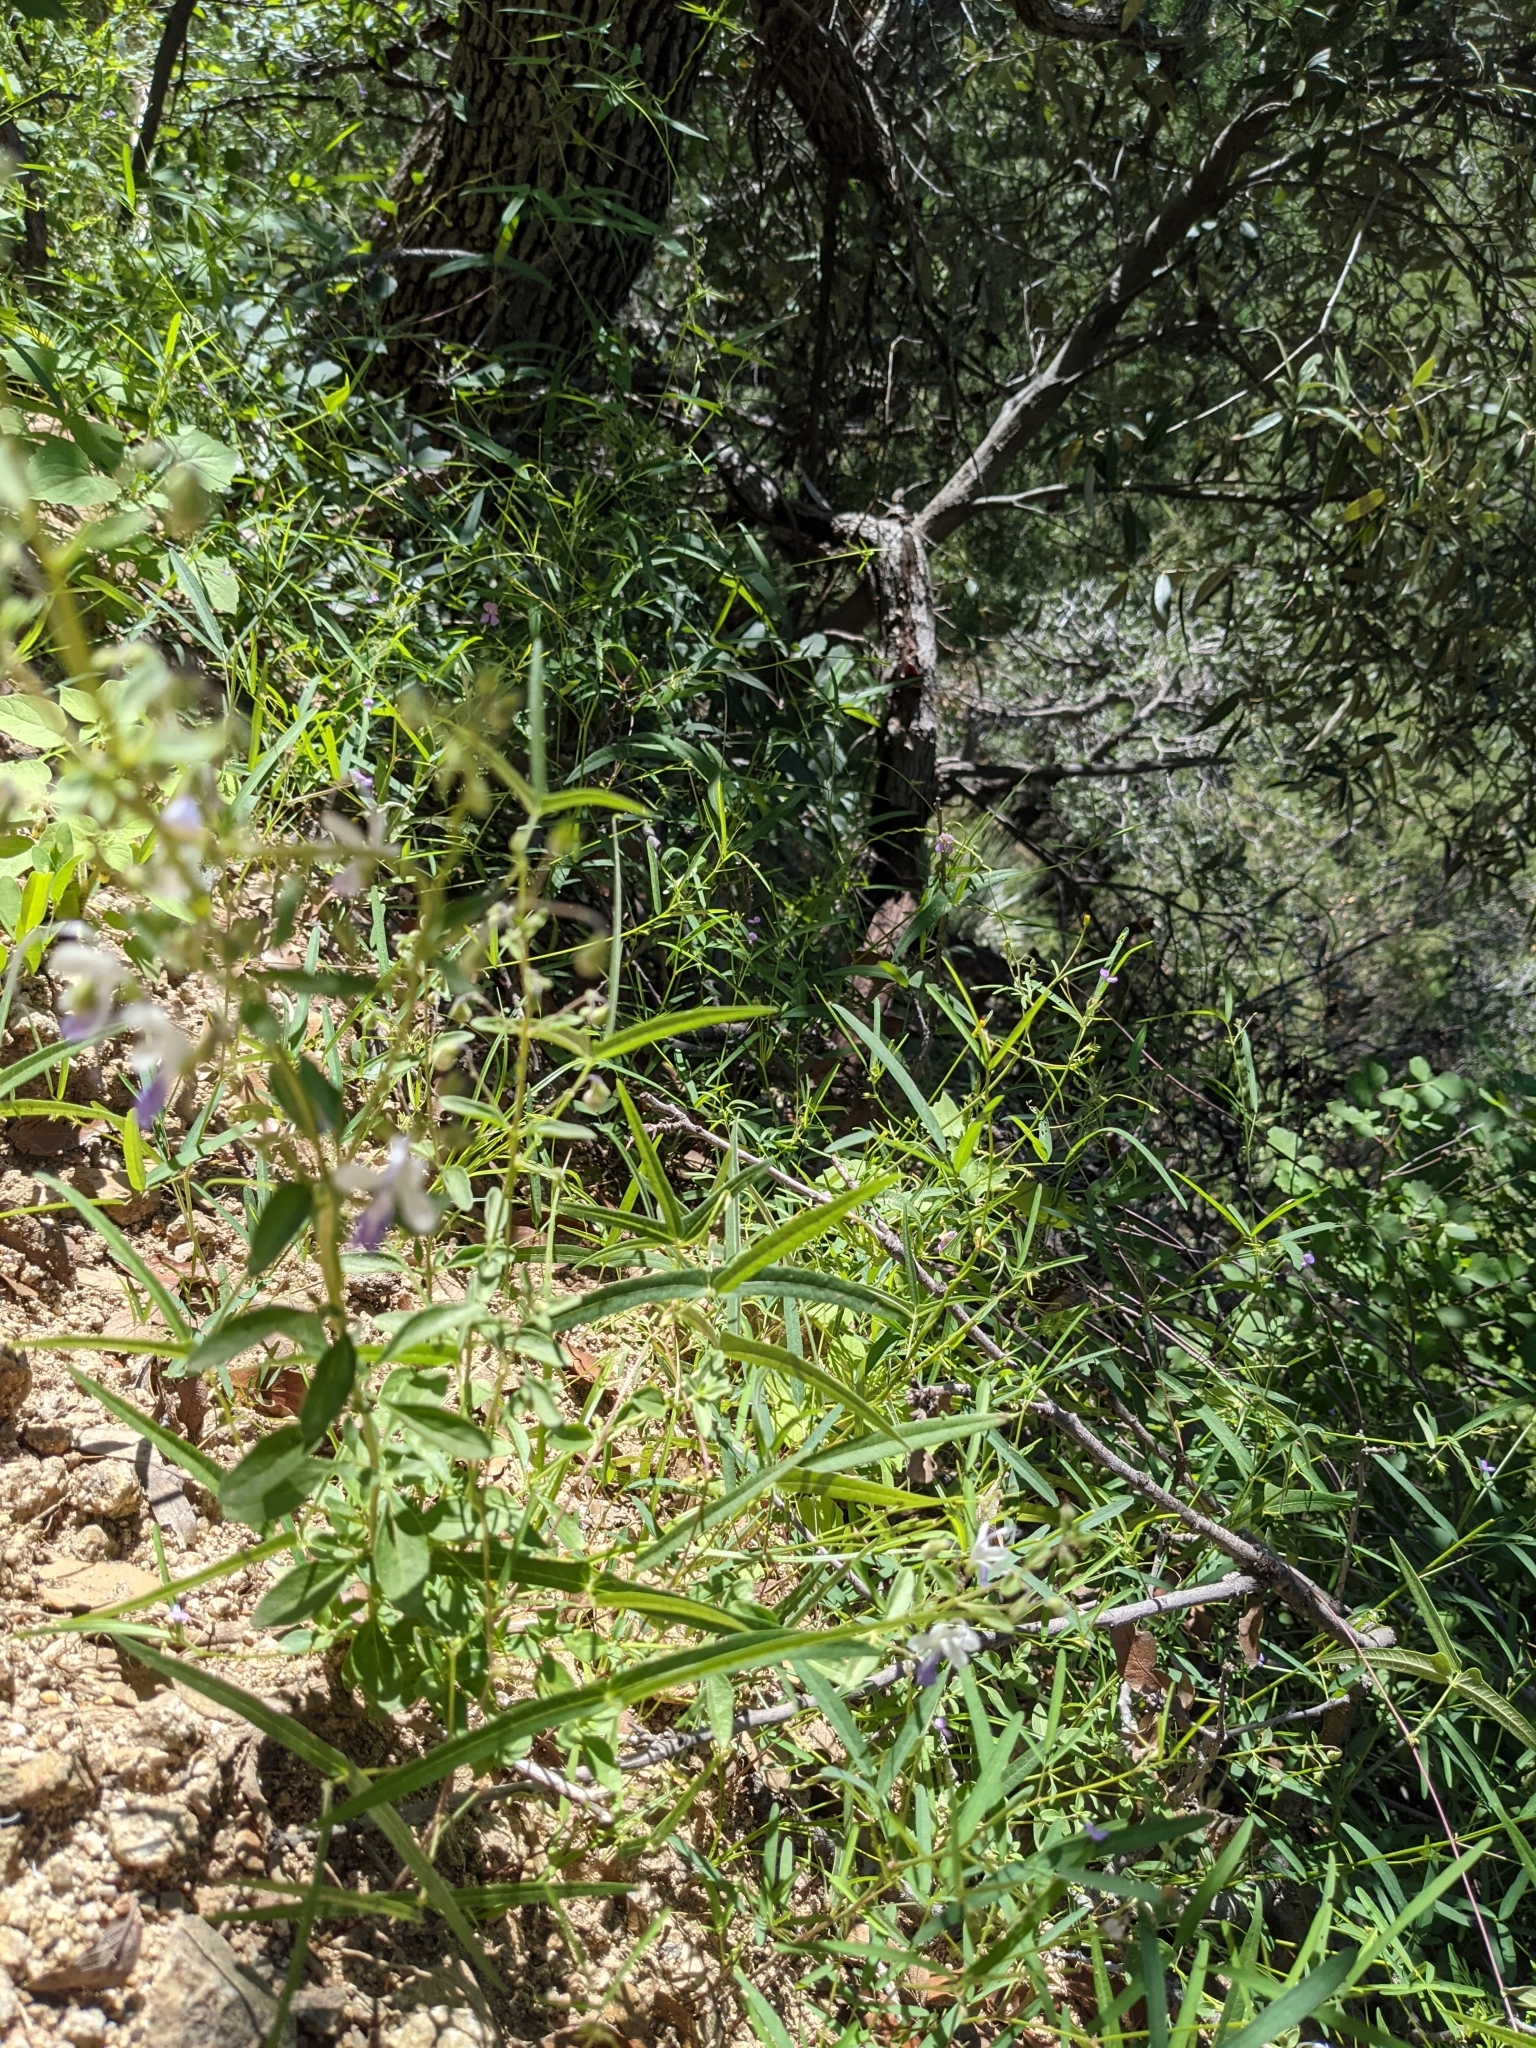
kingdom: Plantae
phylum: Tracheophyta
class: Magnoliopsida
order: Lamiales
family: Lamiaceae
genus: Trichostema
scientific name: Trichostema arizonicum
